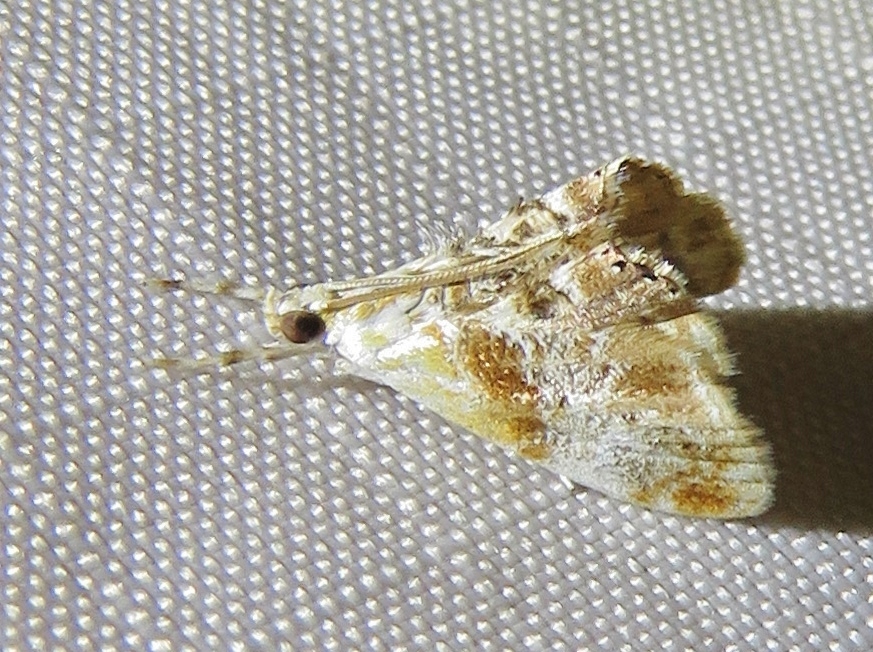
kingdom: Animalia
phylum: Arthropoda
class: Insecta
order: Lepidoptera
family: Crambidae
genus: Dicymolomia
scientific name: Dicymolomia julianalis
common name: Julia's dicymolomia moth
